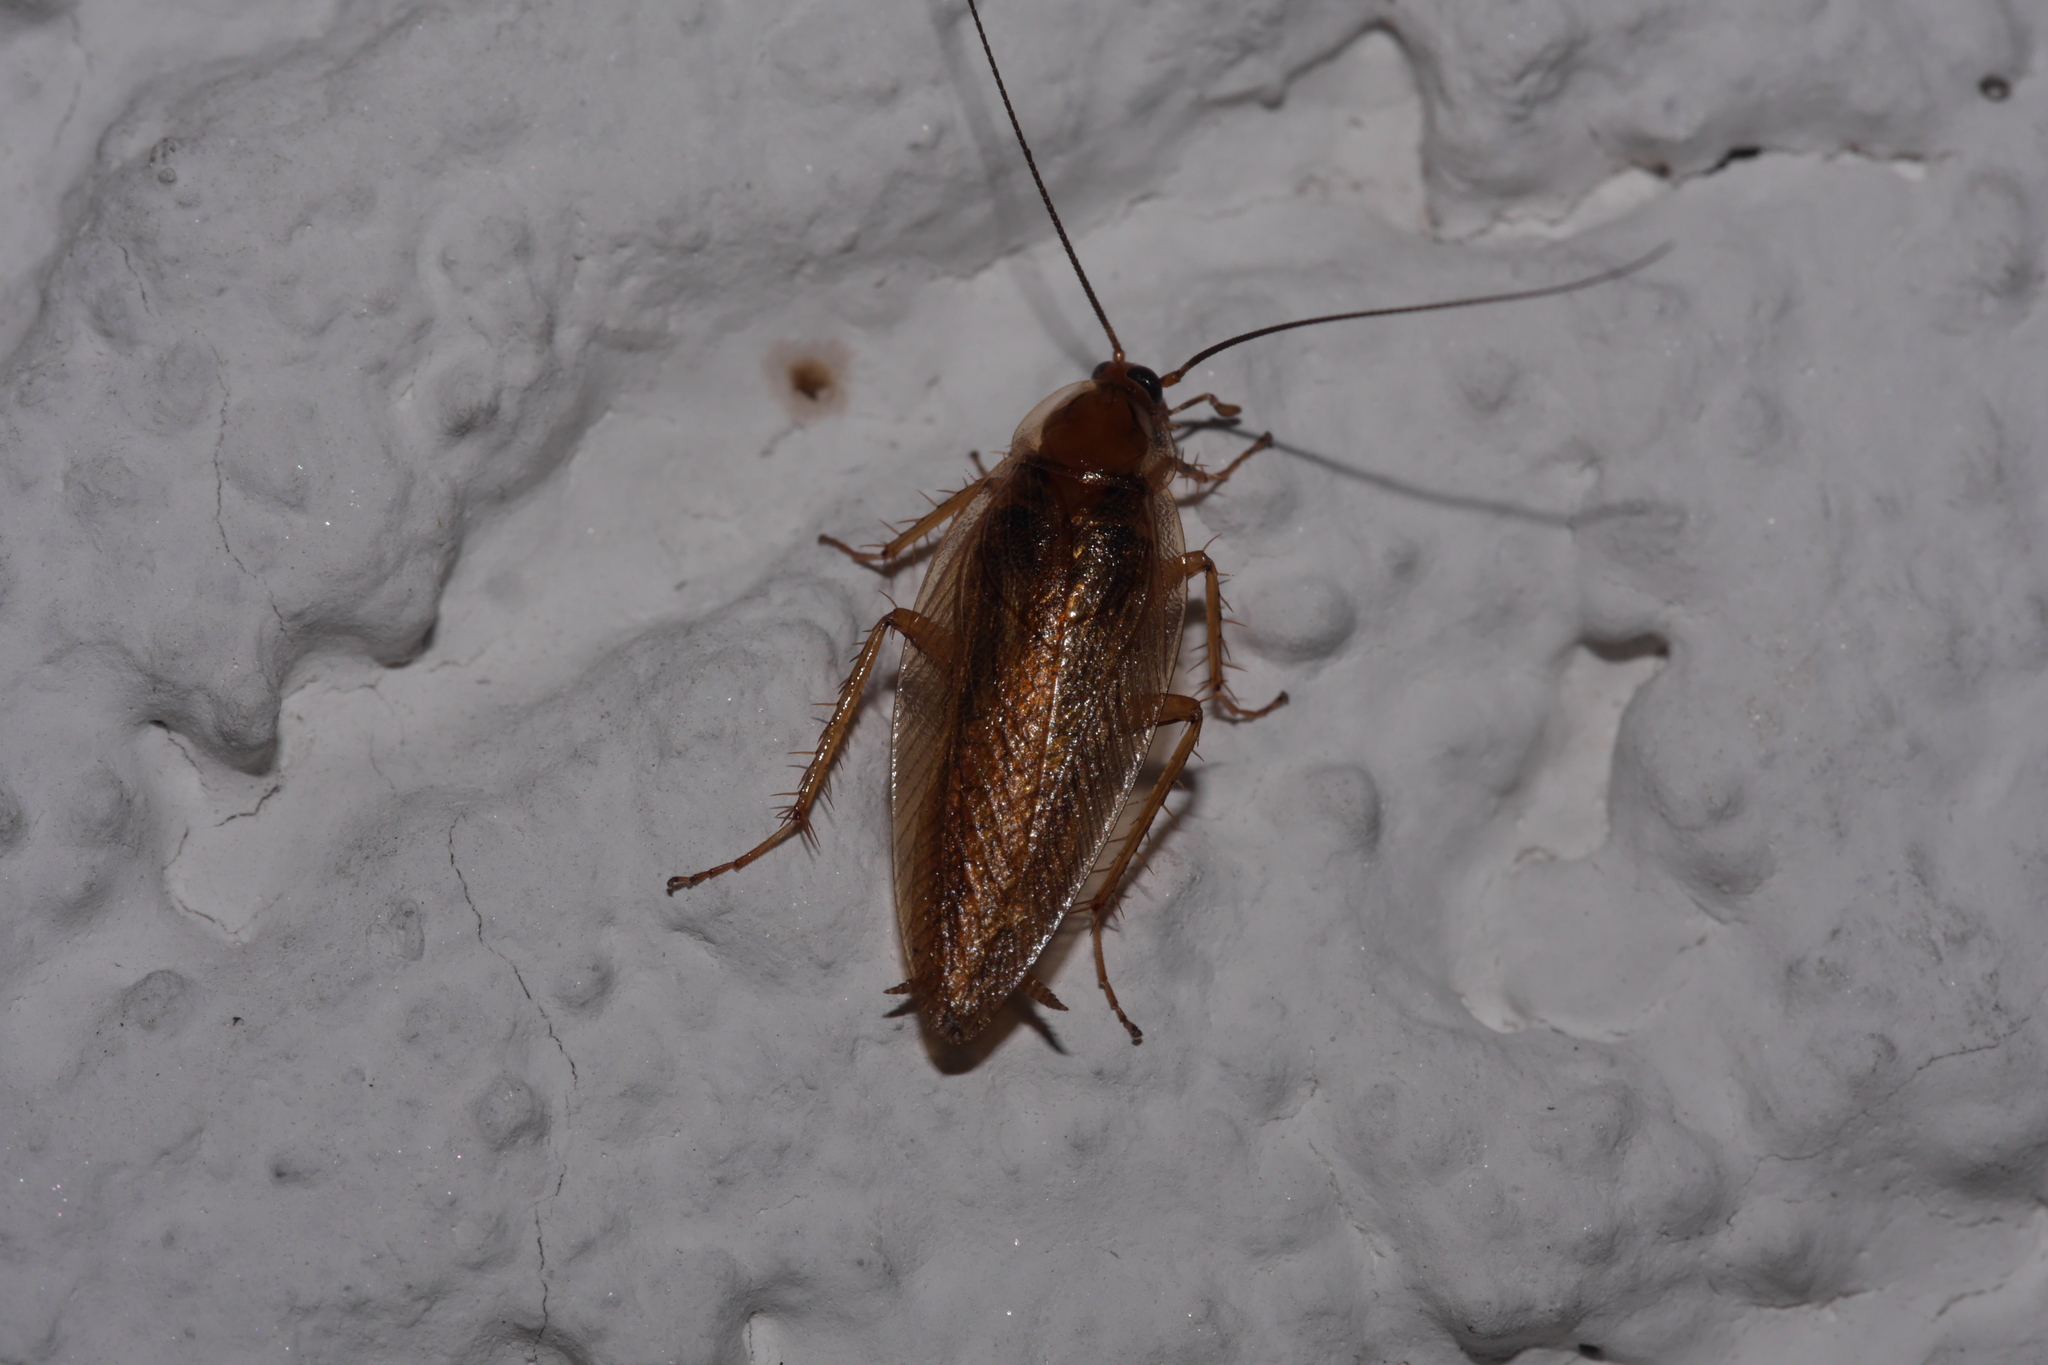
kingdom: Animalia
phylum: Arthropoda
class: Insecta
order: Blattodea
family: Ectobiidae
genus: Ectobius
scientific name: Ectobius vittiventris
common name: Garden cockroach
